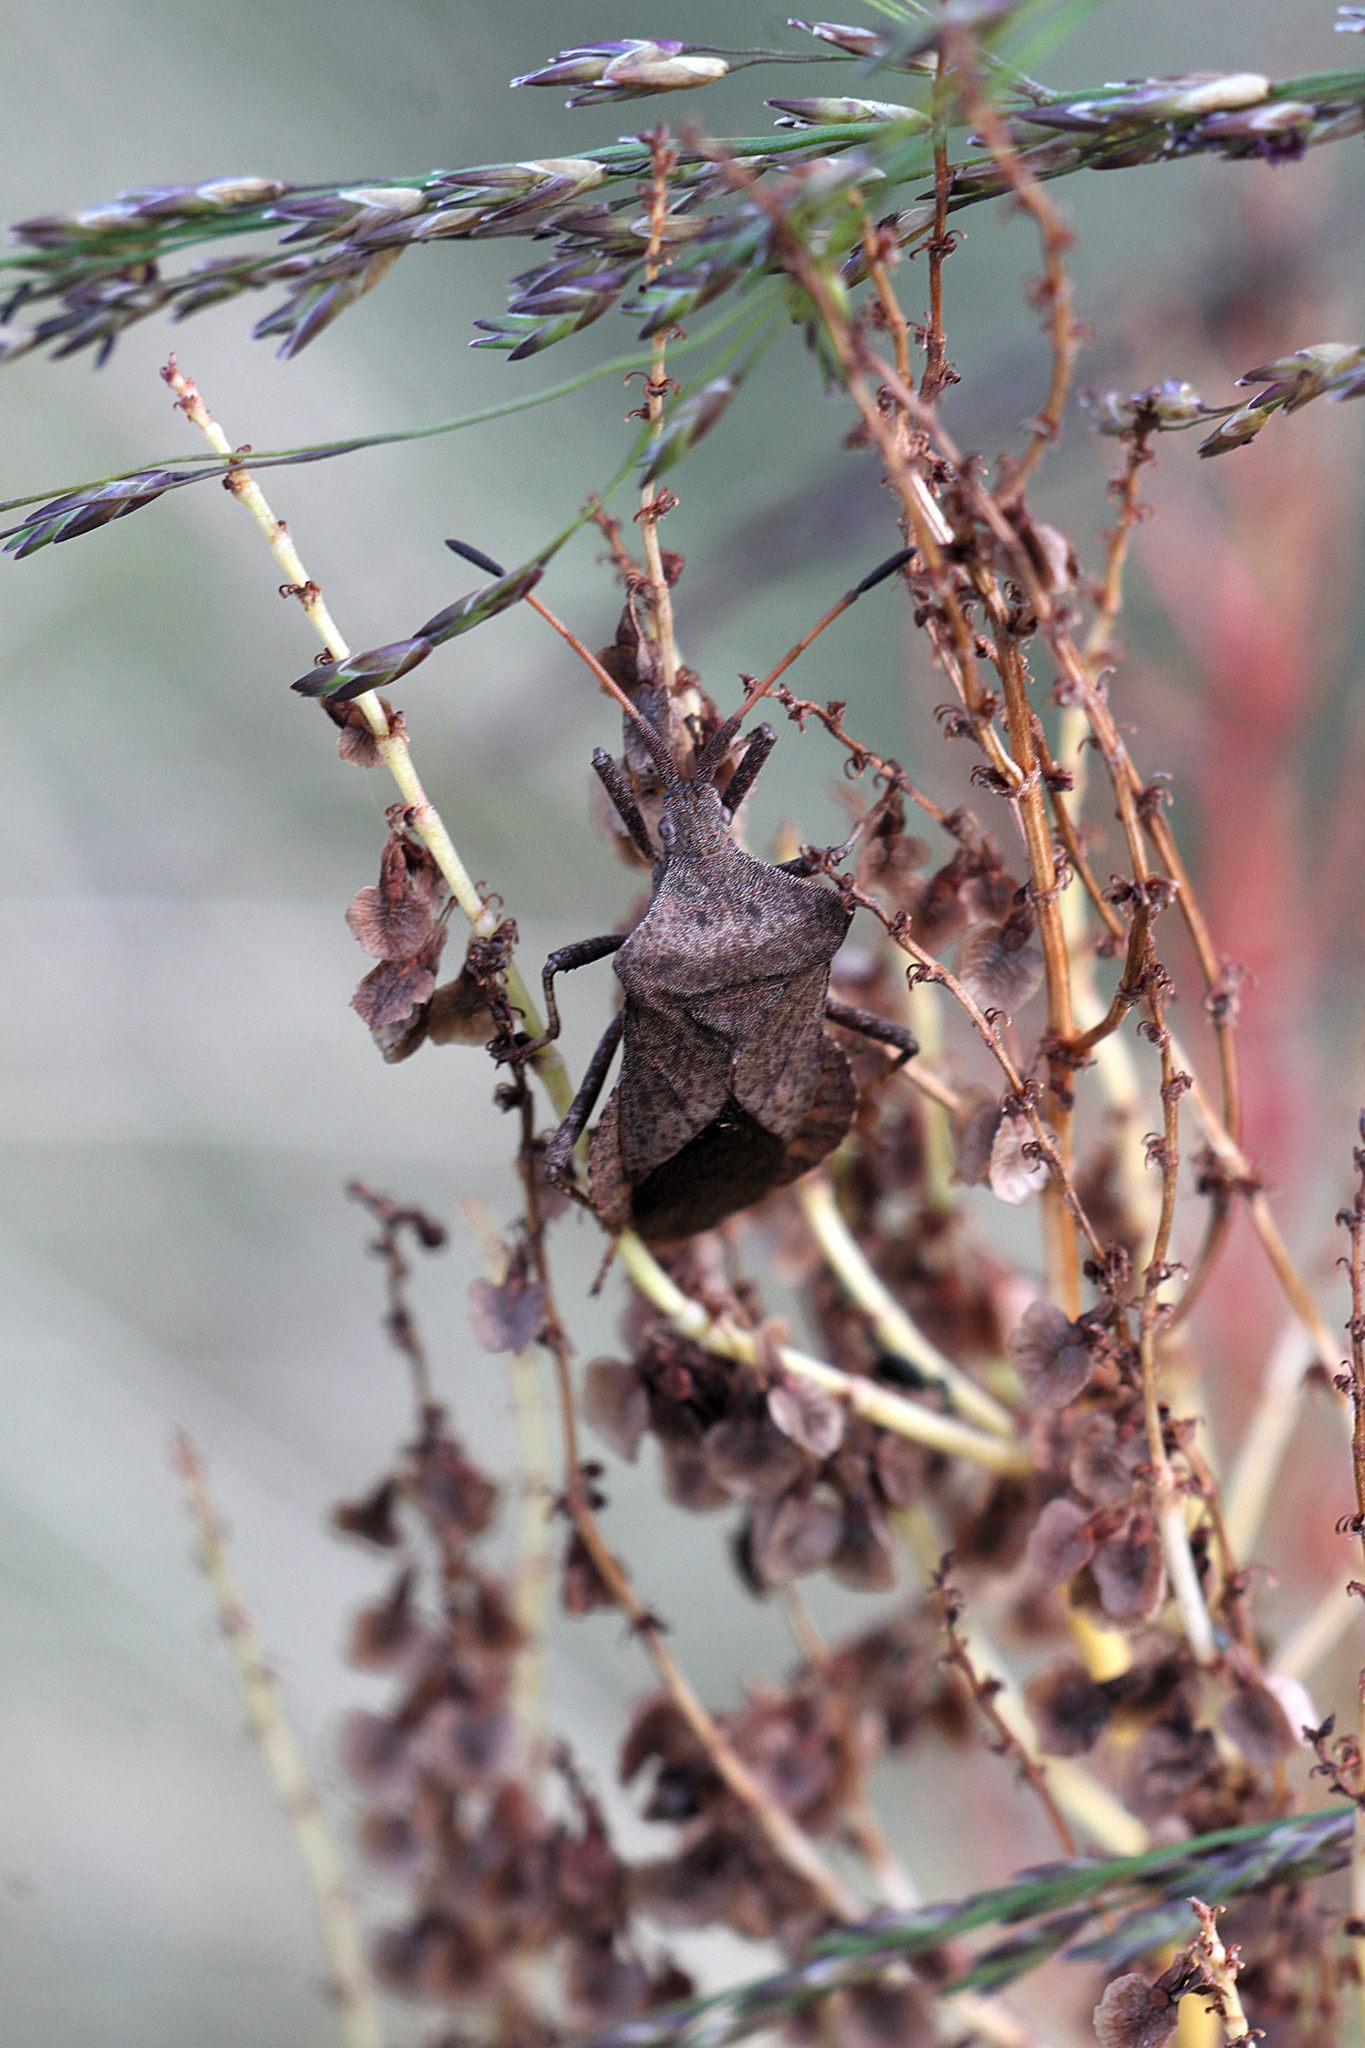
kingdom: Animalia
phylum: Arthropoda
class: Insecta
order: Hemiptera
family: Coreidae
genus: Coreus
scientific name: Coreus marginatus
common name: Dock bug
